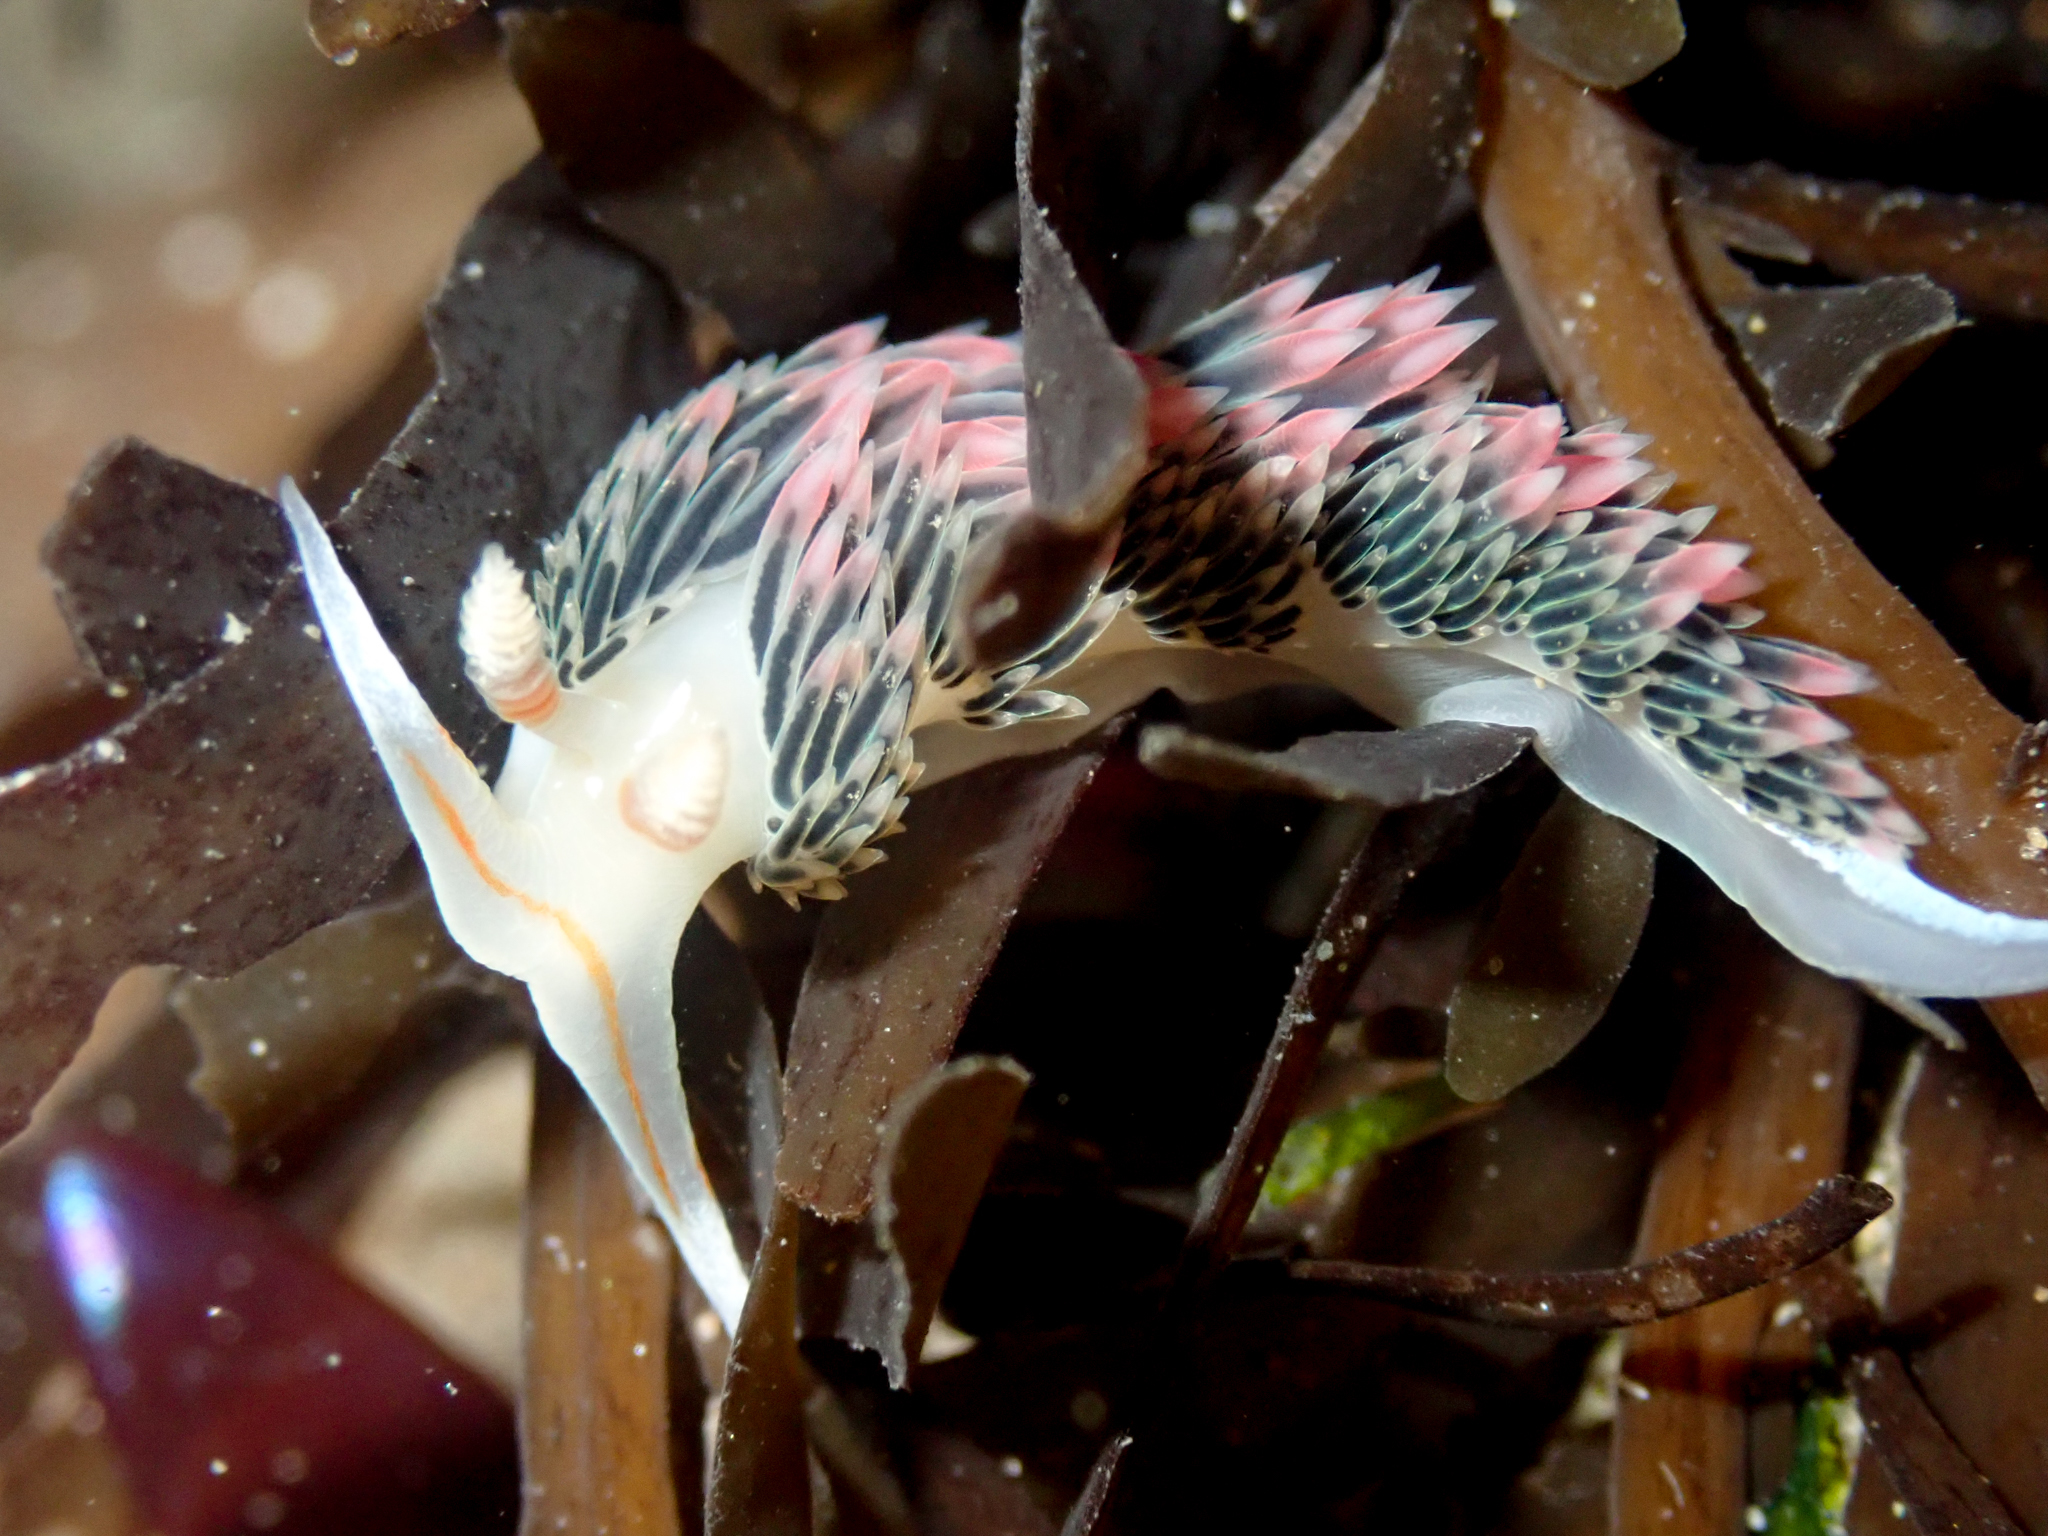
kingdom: Animalia
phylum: Mollusca
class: Gastropoda
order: Nudibranchia
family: Facelinidae
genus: Phidiana
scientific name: Phidiana hiltoni
